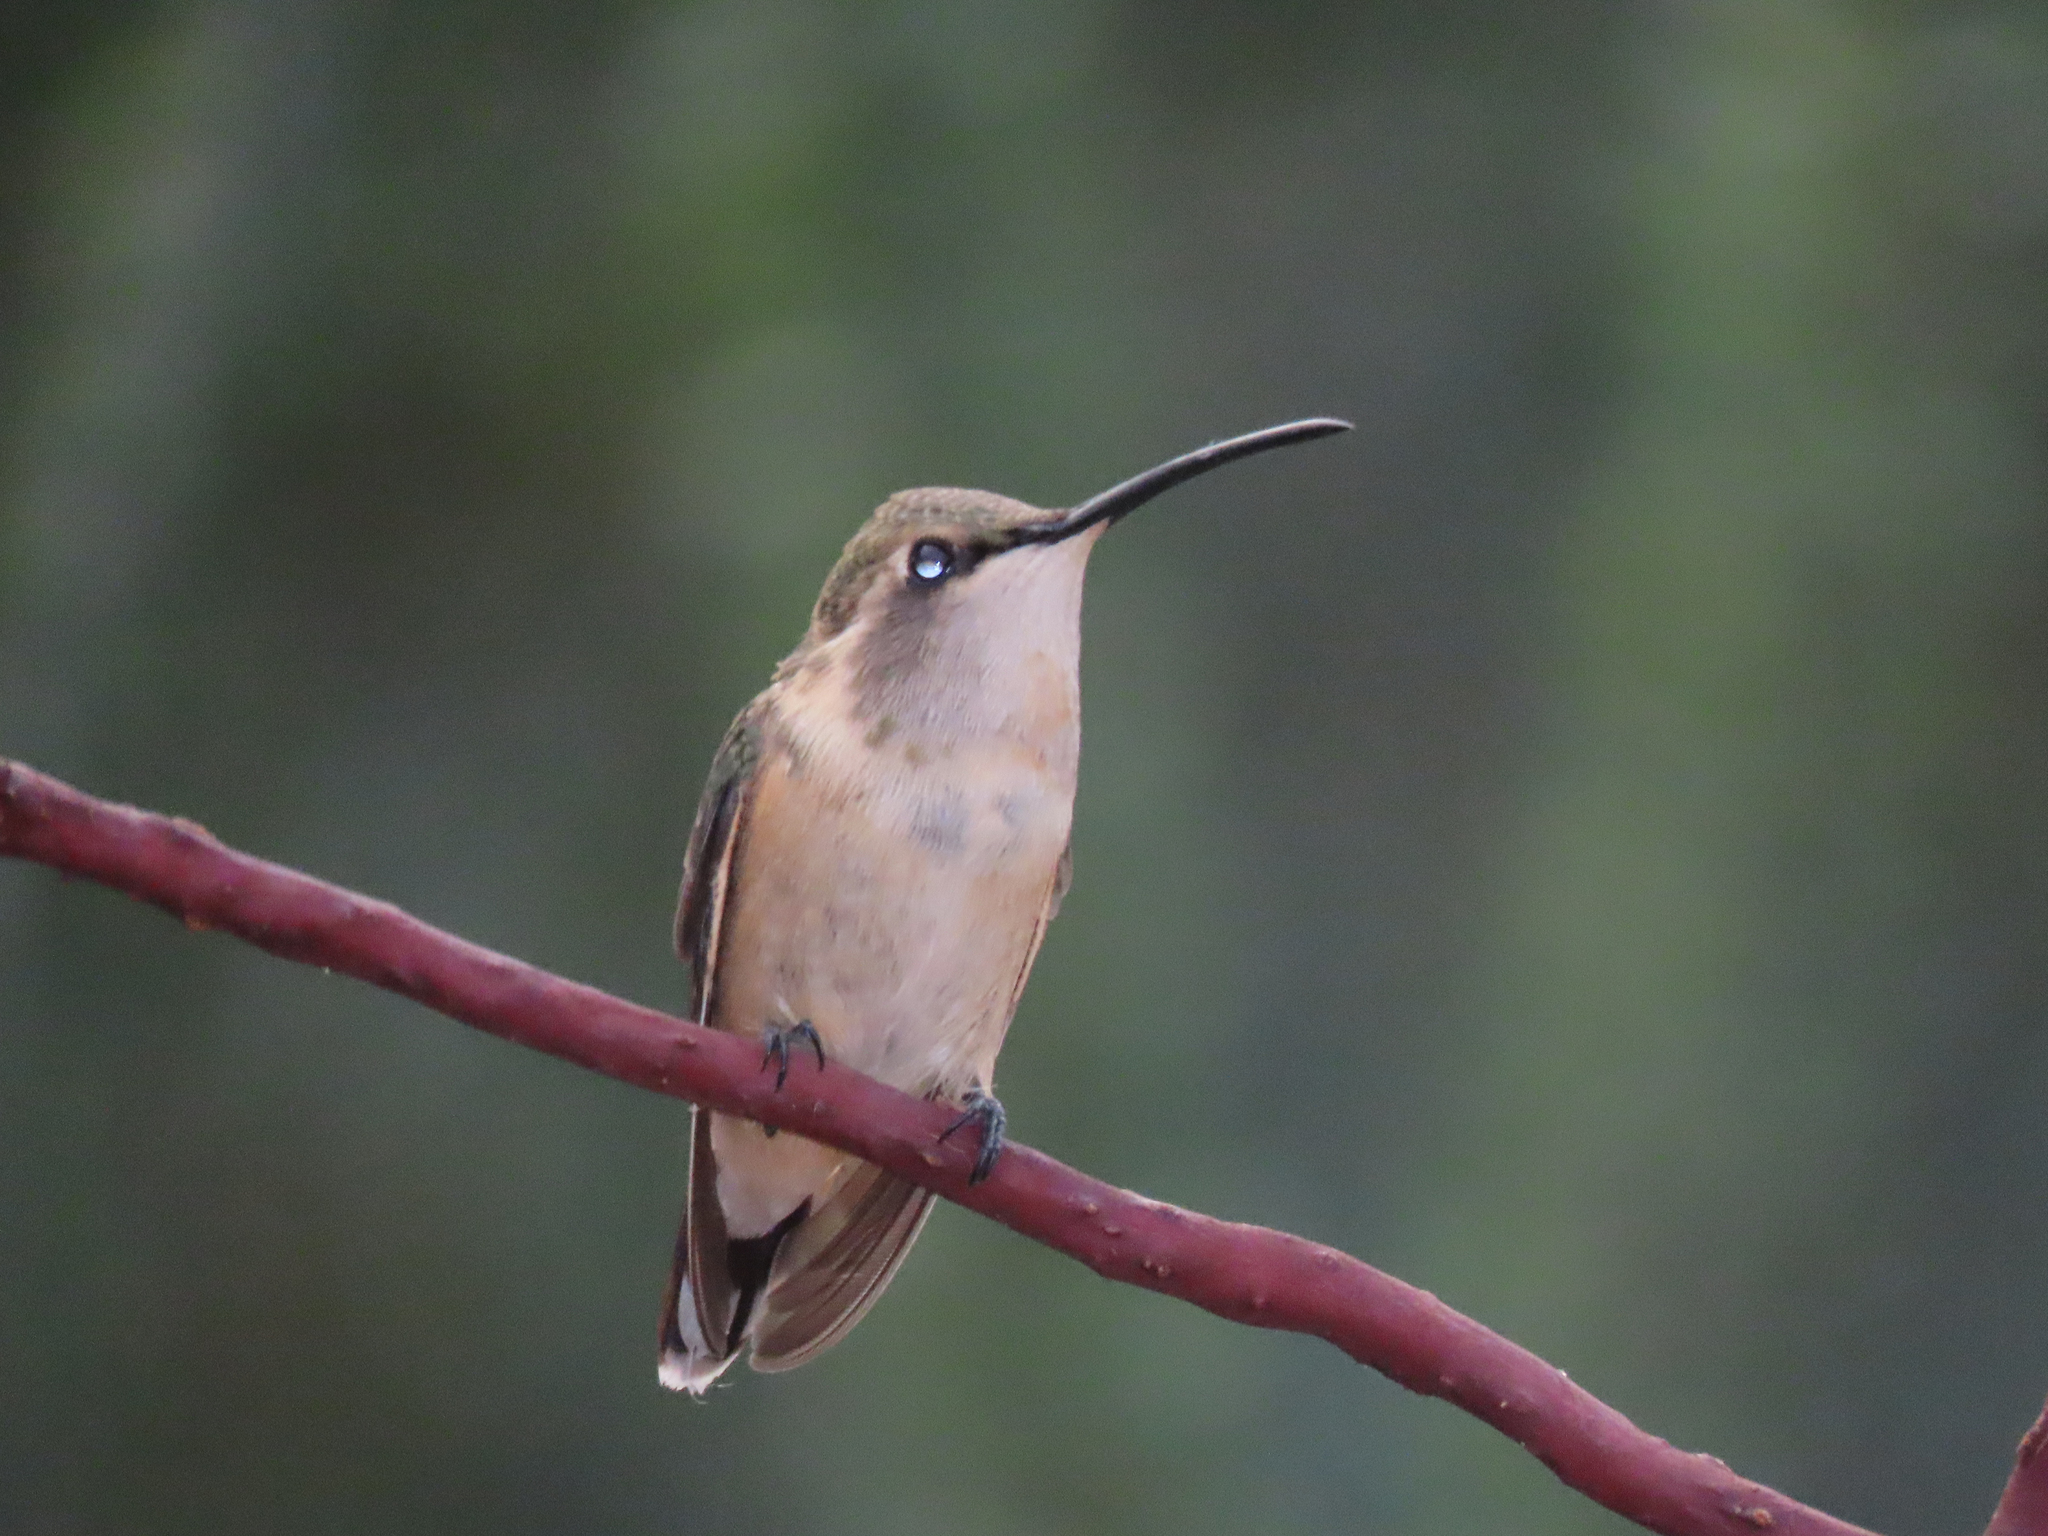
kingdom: Animalia
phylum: Chordata
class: Aves
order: Apodiformes
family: Trochilidae
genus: Calothorax
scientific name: Calothorax lucifer
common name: Lucifer sheartail
